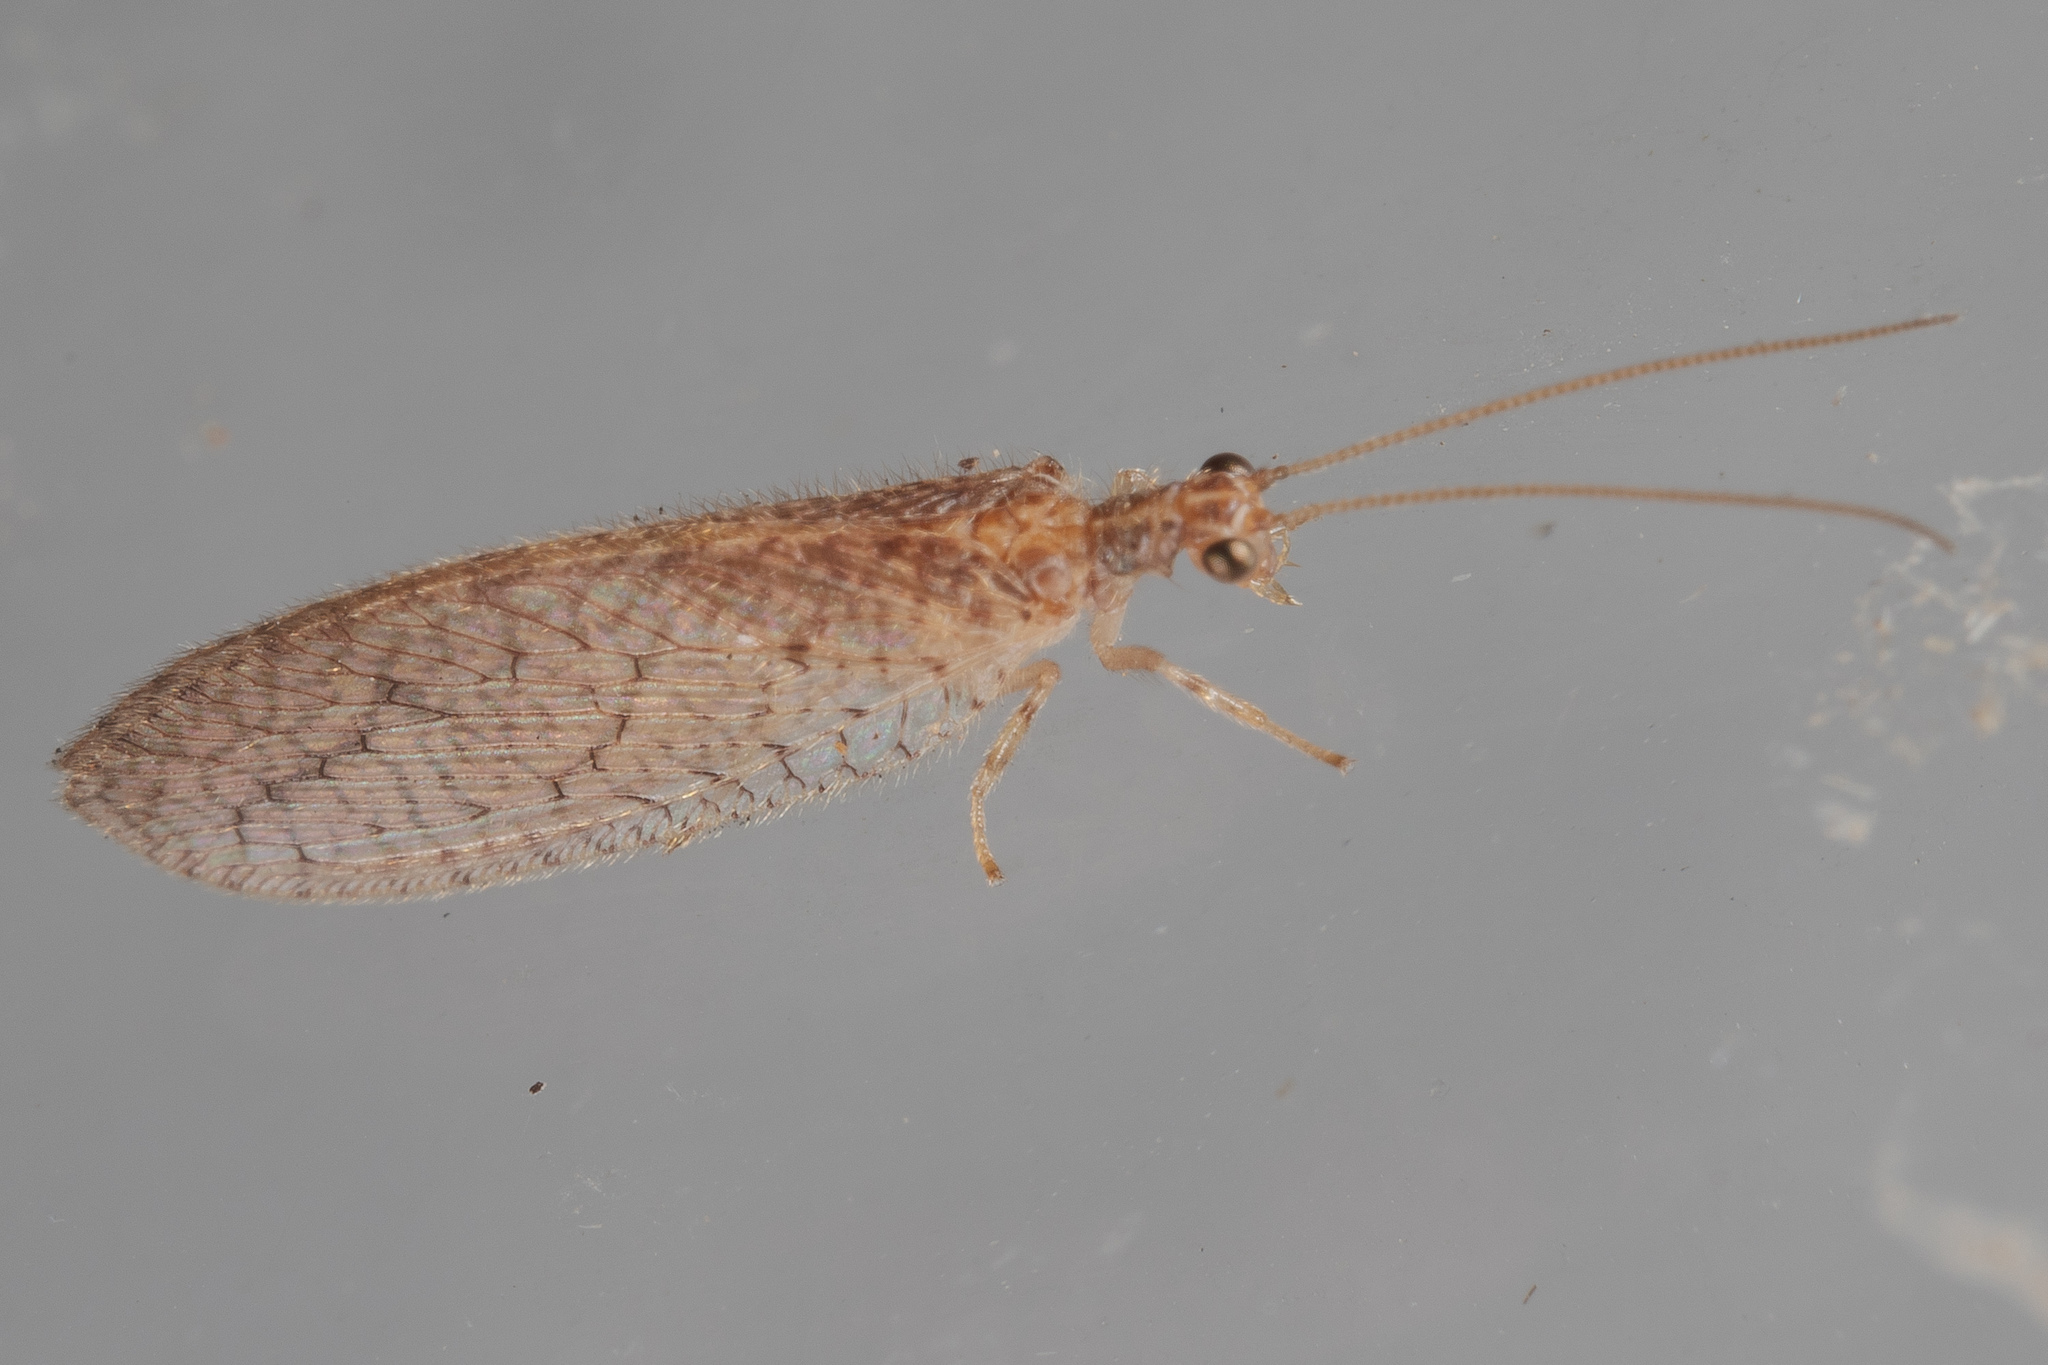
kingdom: Animalia
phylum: Arthropoda
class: Insecta
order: Neuroptera
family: Hemerobiidae
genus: Micromus
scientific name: Micromus posticus
